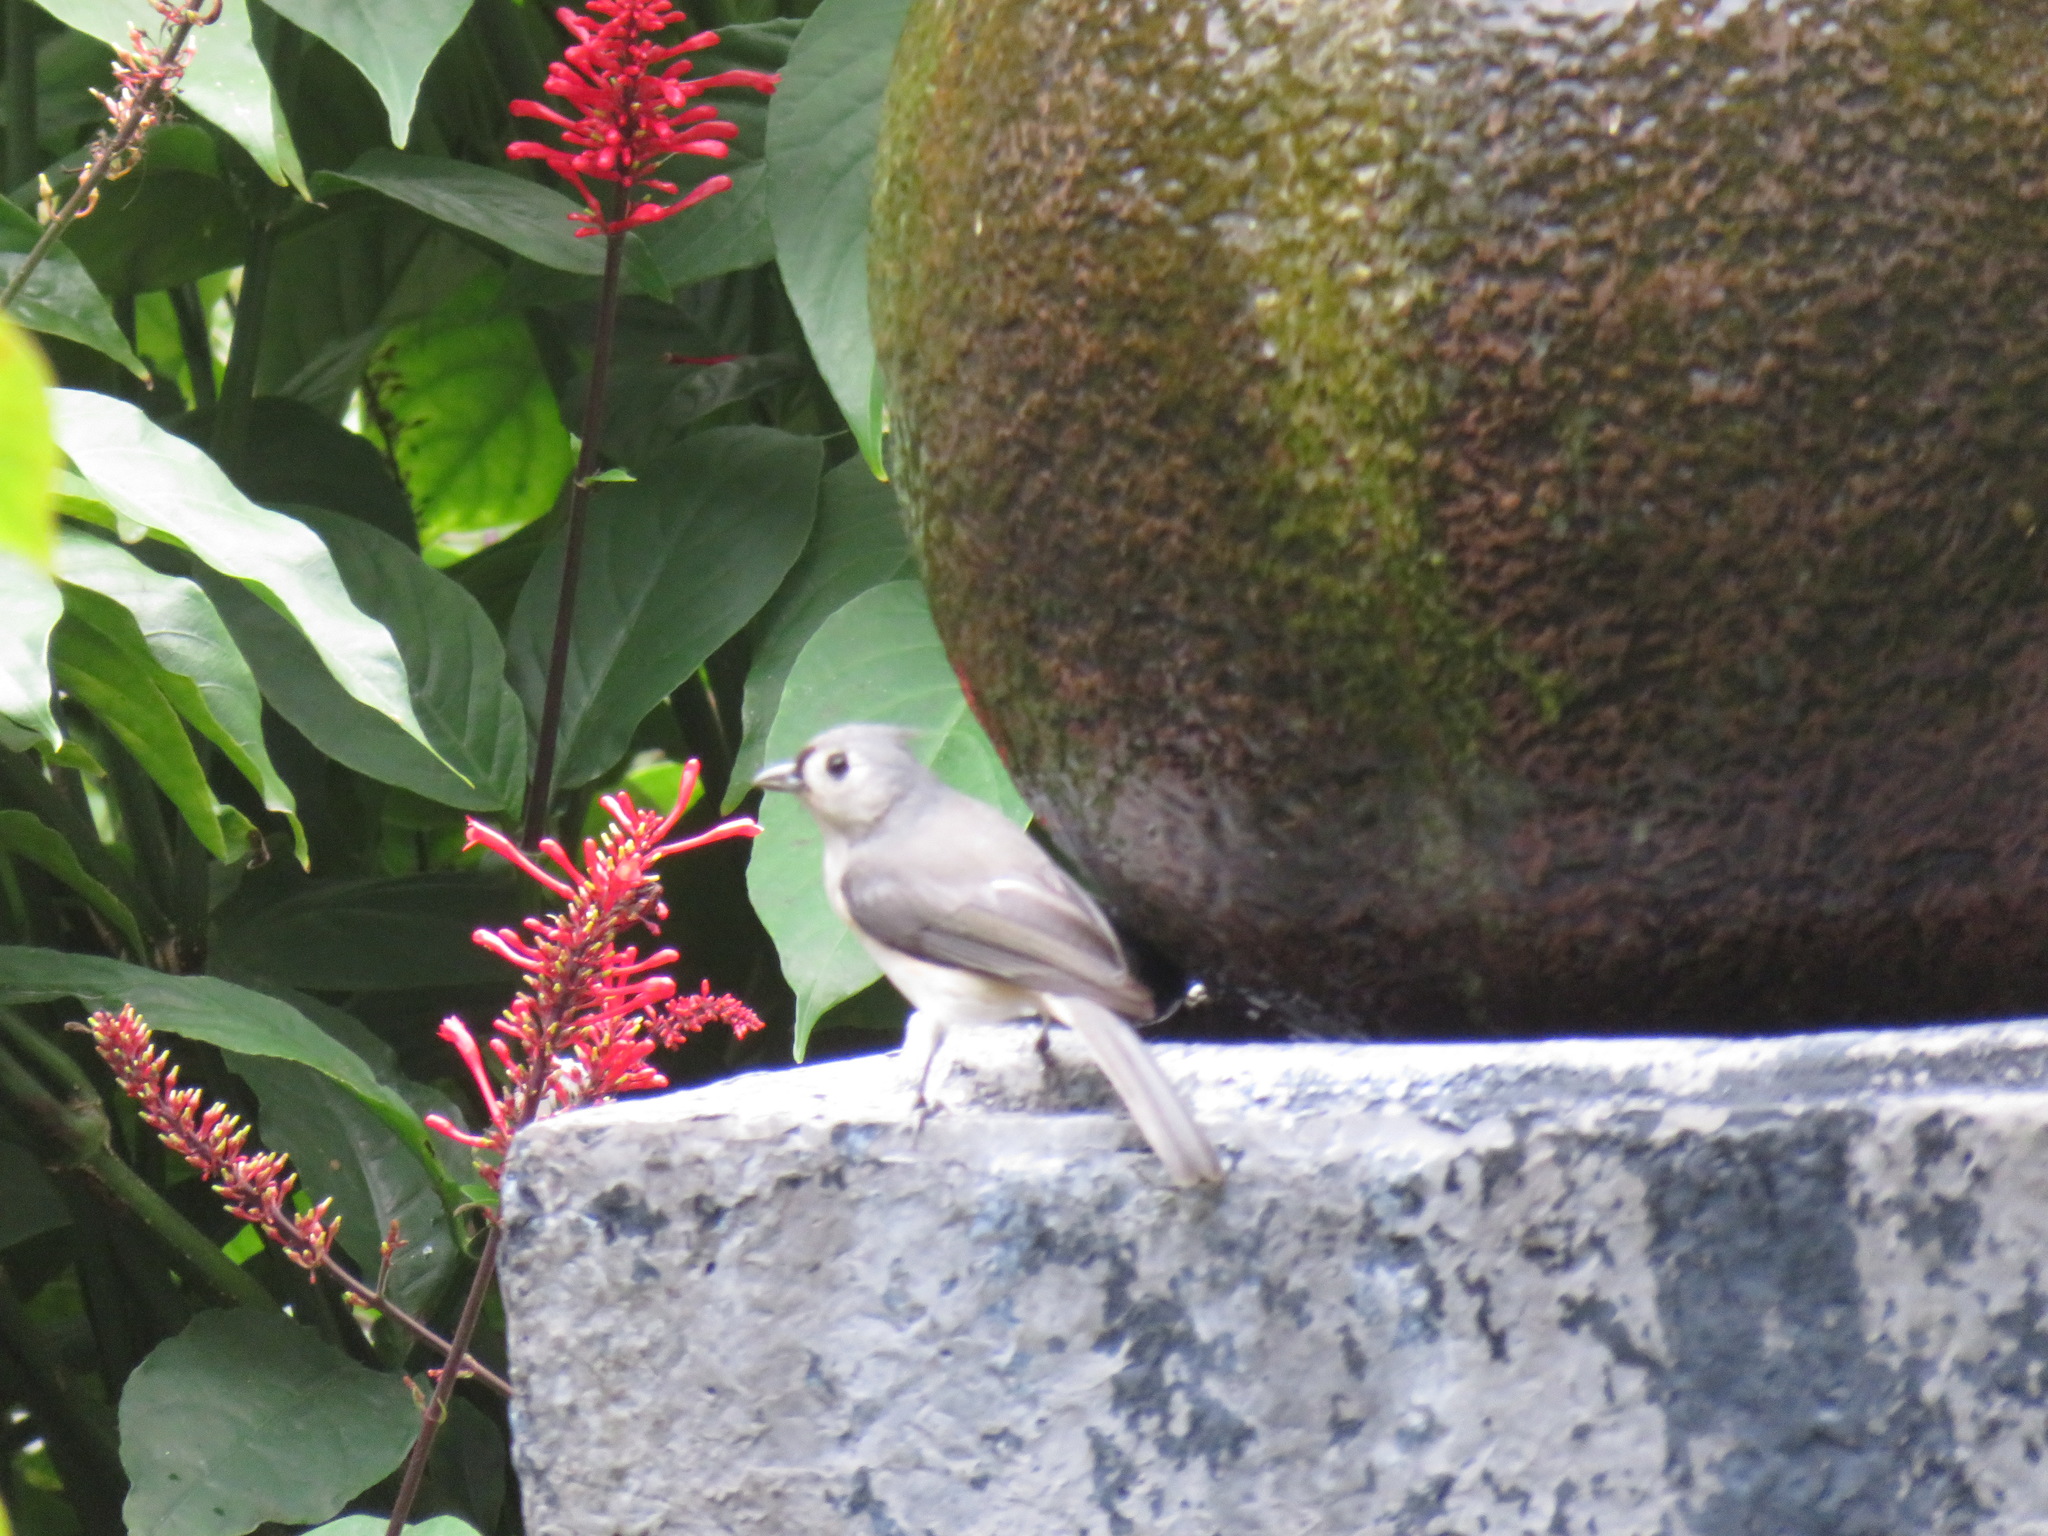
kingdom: Animalia
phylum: Chordata
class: Aves
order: Passeriformes
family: Paridae
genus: Baeolophus
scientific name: Baeolophus bicolor
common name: Tufted titmouse
